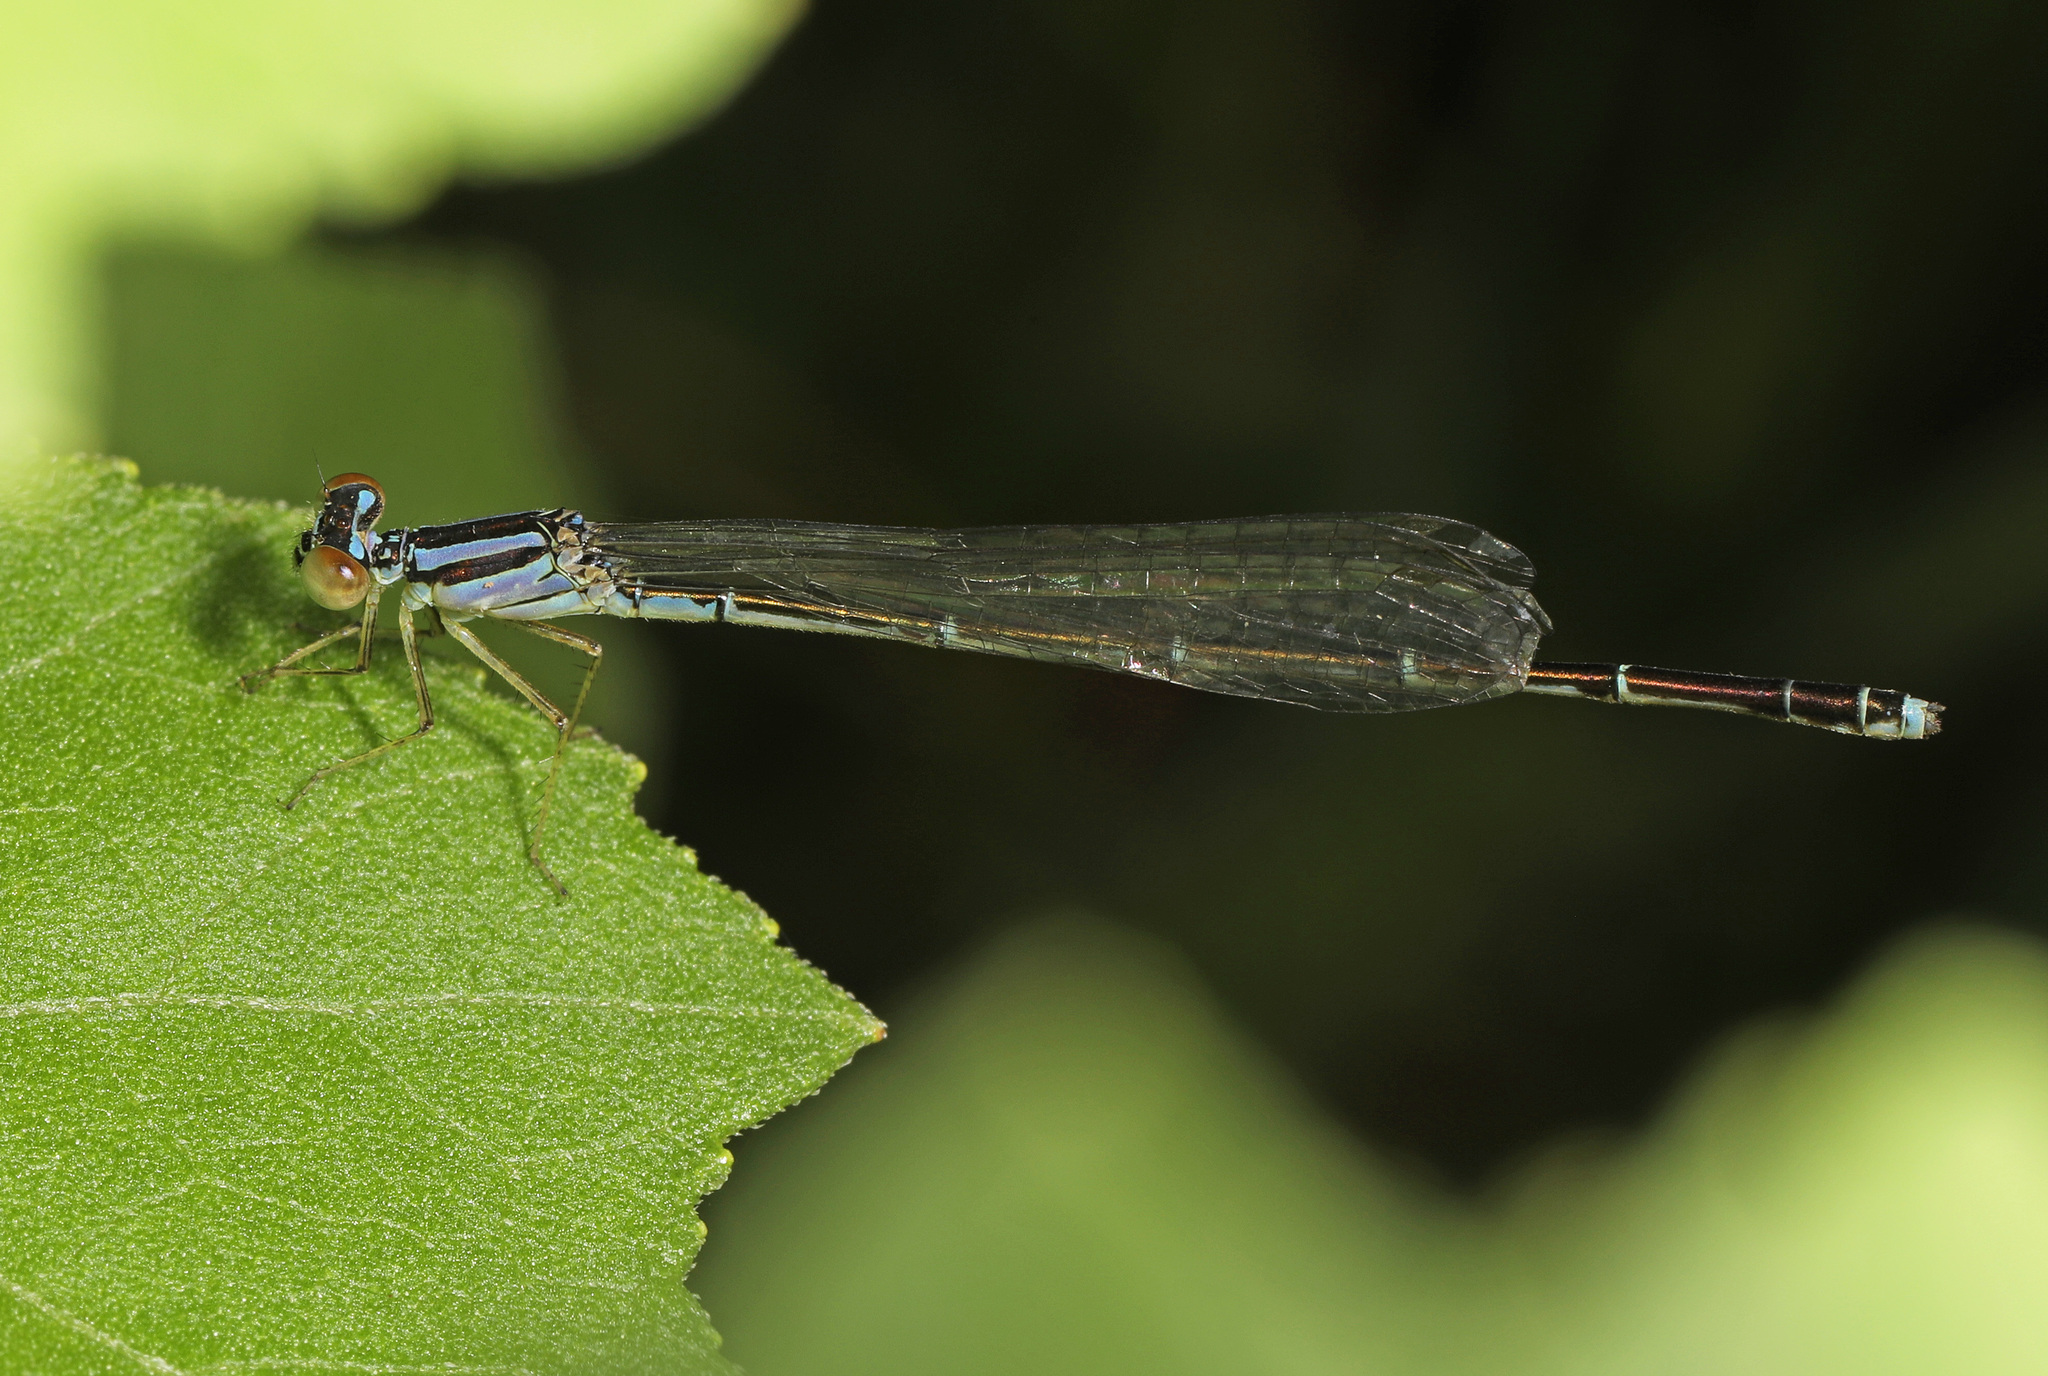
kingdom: Animalia
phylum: Arthropoda
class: Insecta
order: Odonata
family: Coenagrionidae
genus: Enallagma
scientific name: Enallagma signatum
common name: Orange bluet
